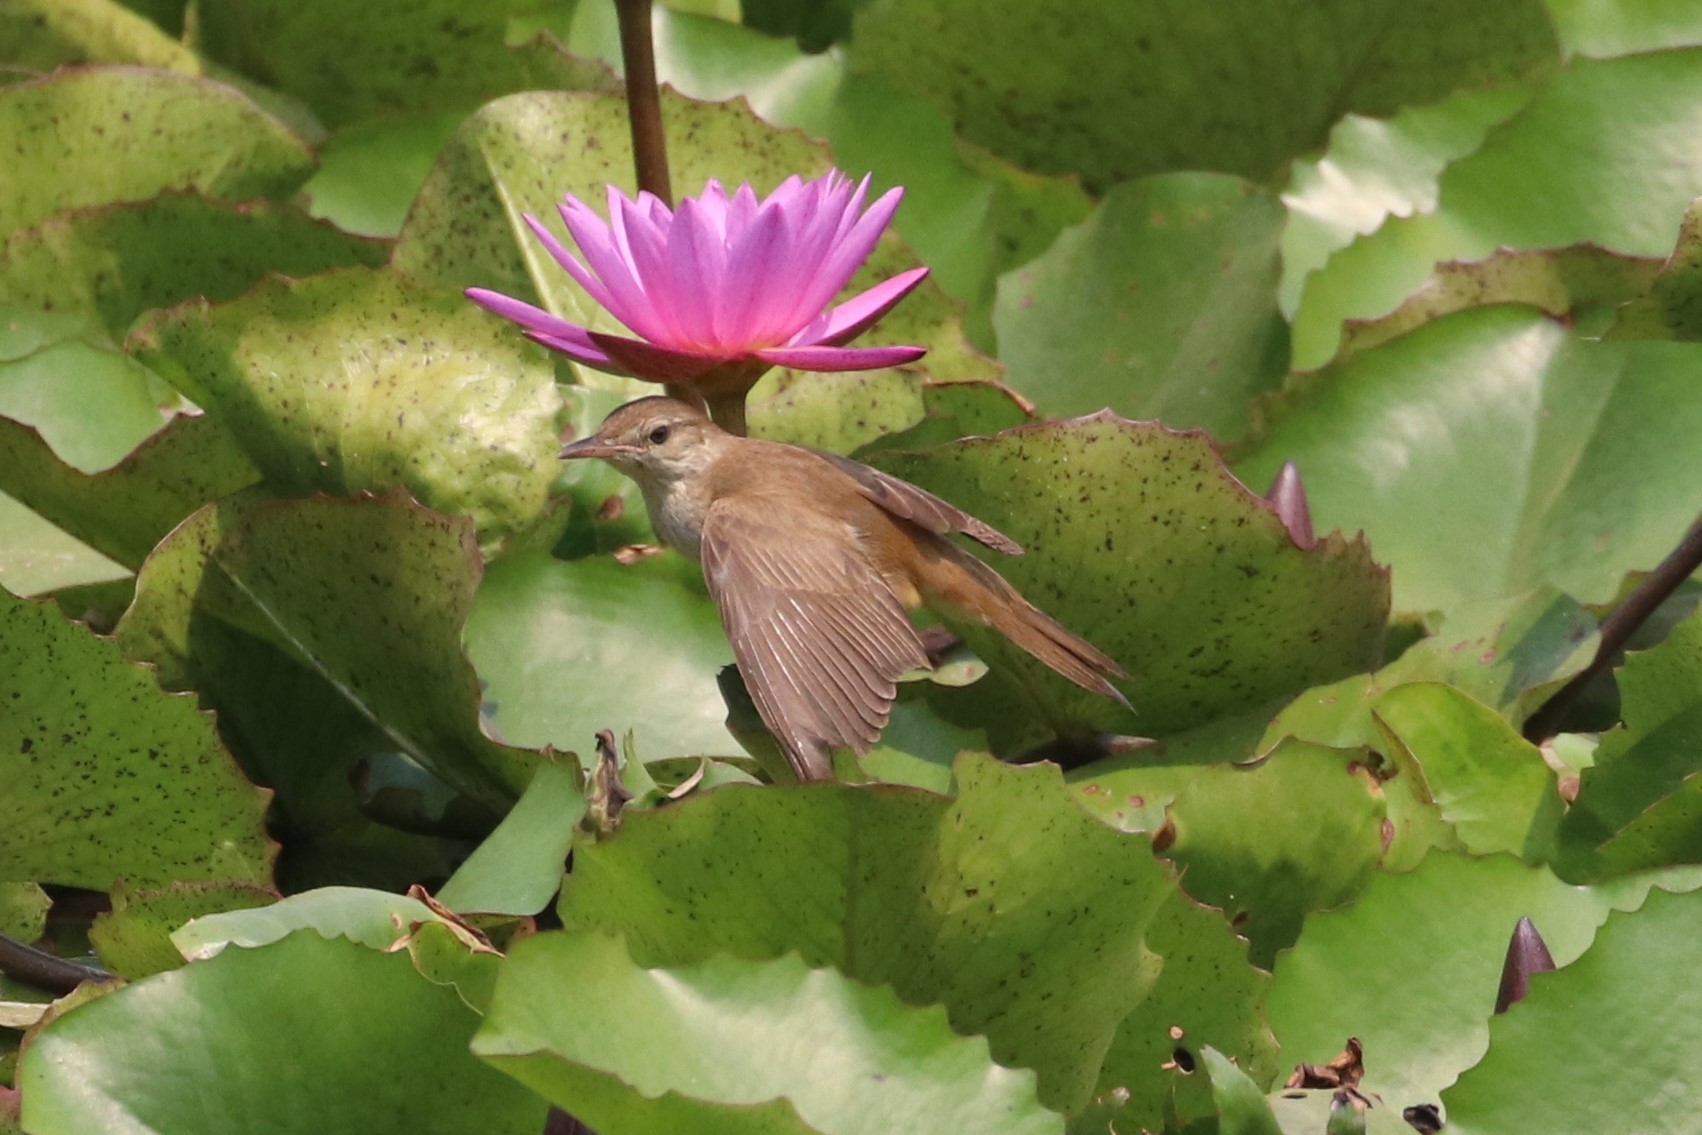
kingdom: Animalia
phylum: Chordata
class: Aves
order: Passeriformes
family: Acrocephalidae
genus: Acrocephalus
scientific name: Acrocephalus orientalis
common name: Oriental reed warbler
